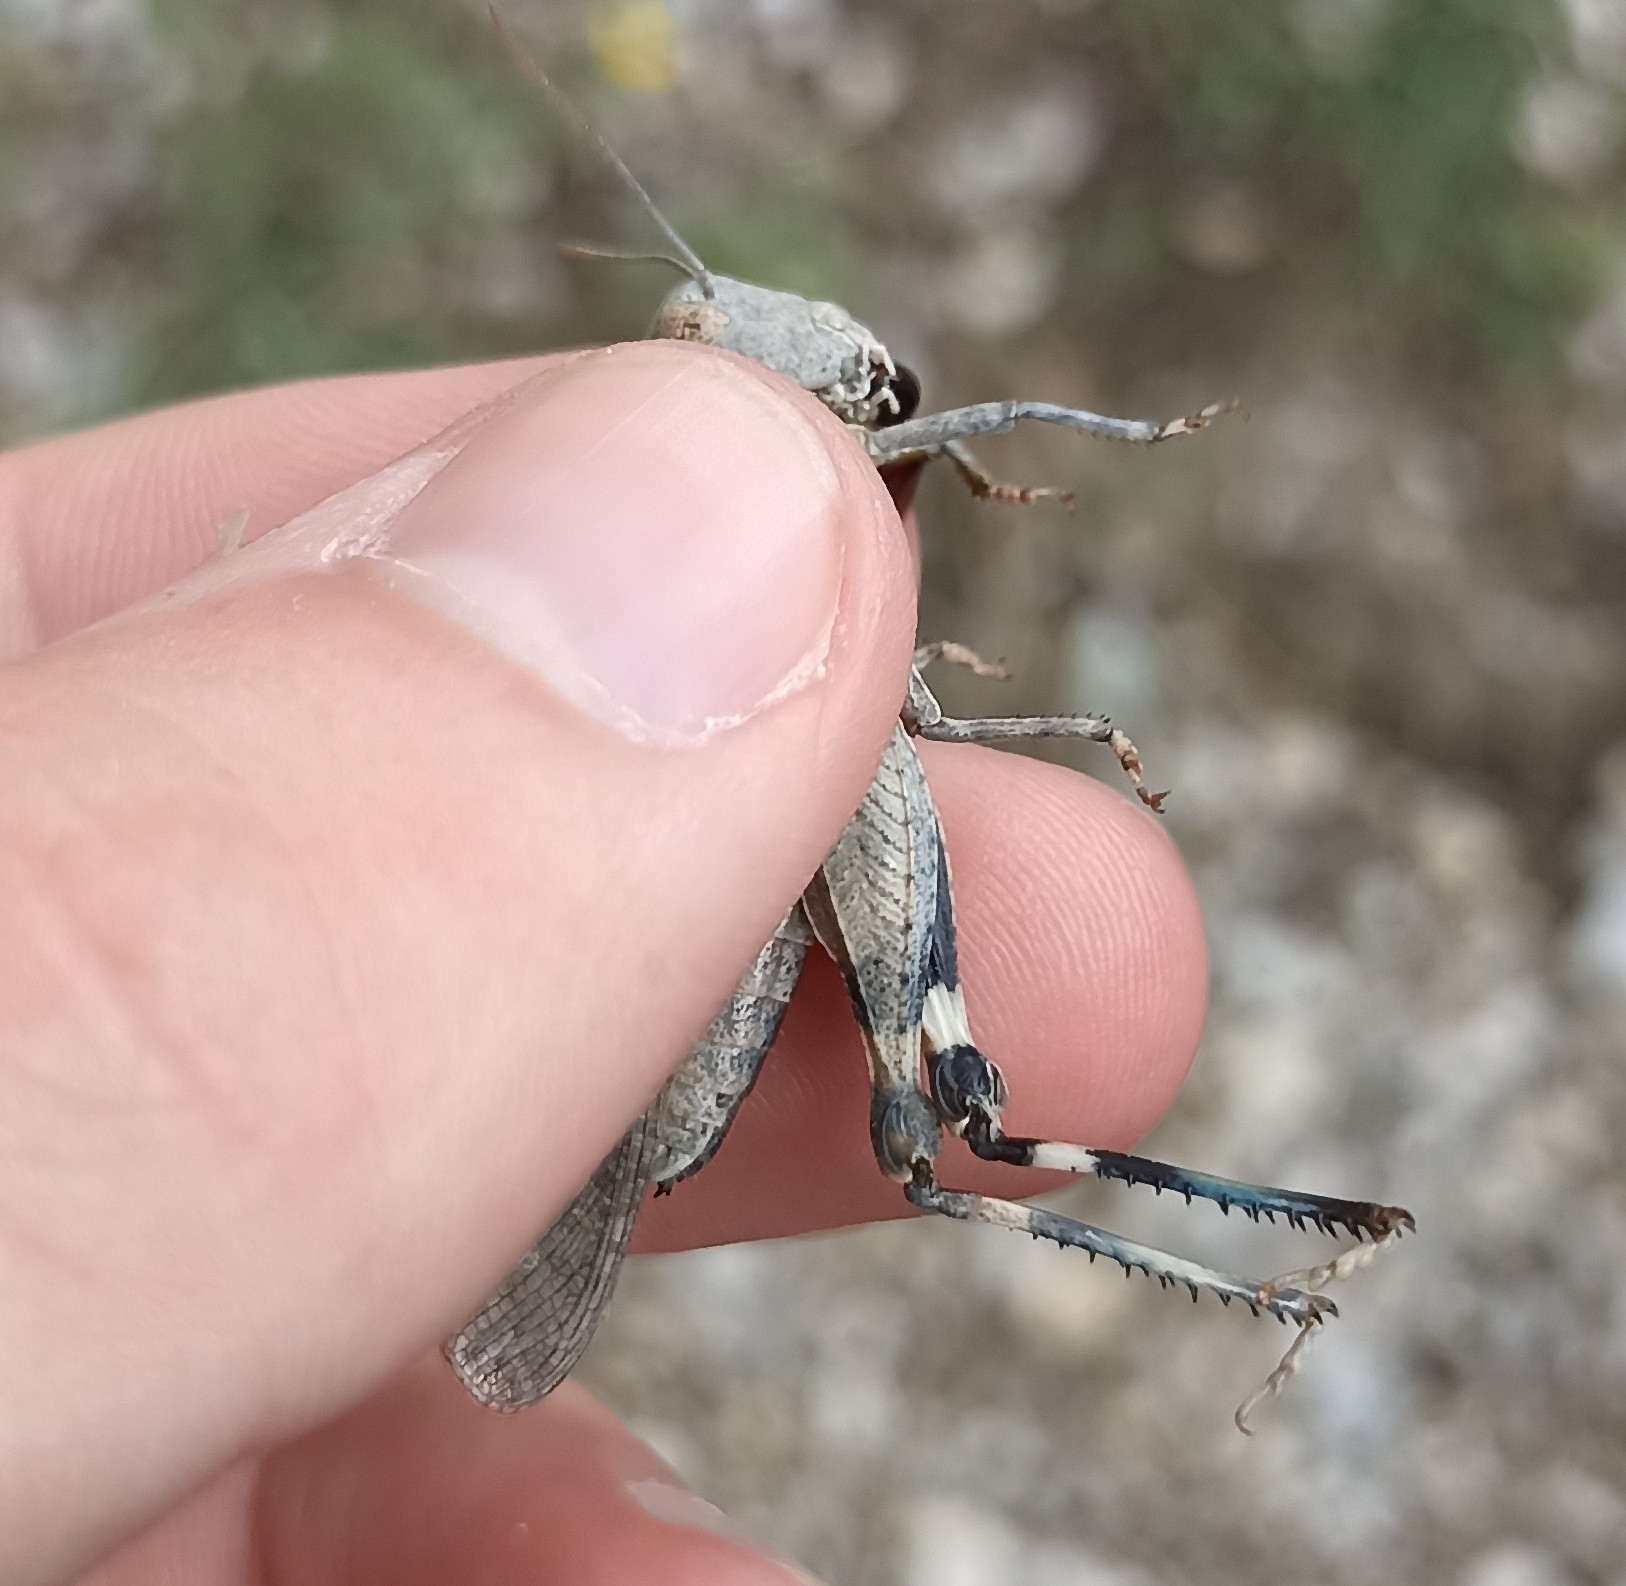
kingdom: Animalia
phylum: Arthropoda
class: Insecta
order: Orthoptera
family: Acrididae
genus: Oedipoda
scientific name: Oedipoda germanica
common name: Red band-winged grasshopper
